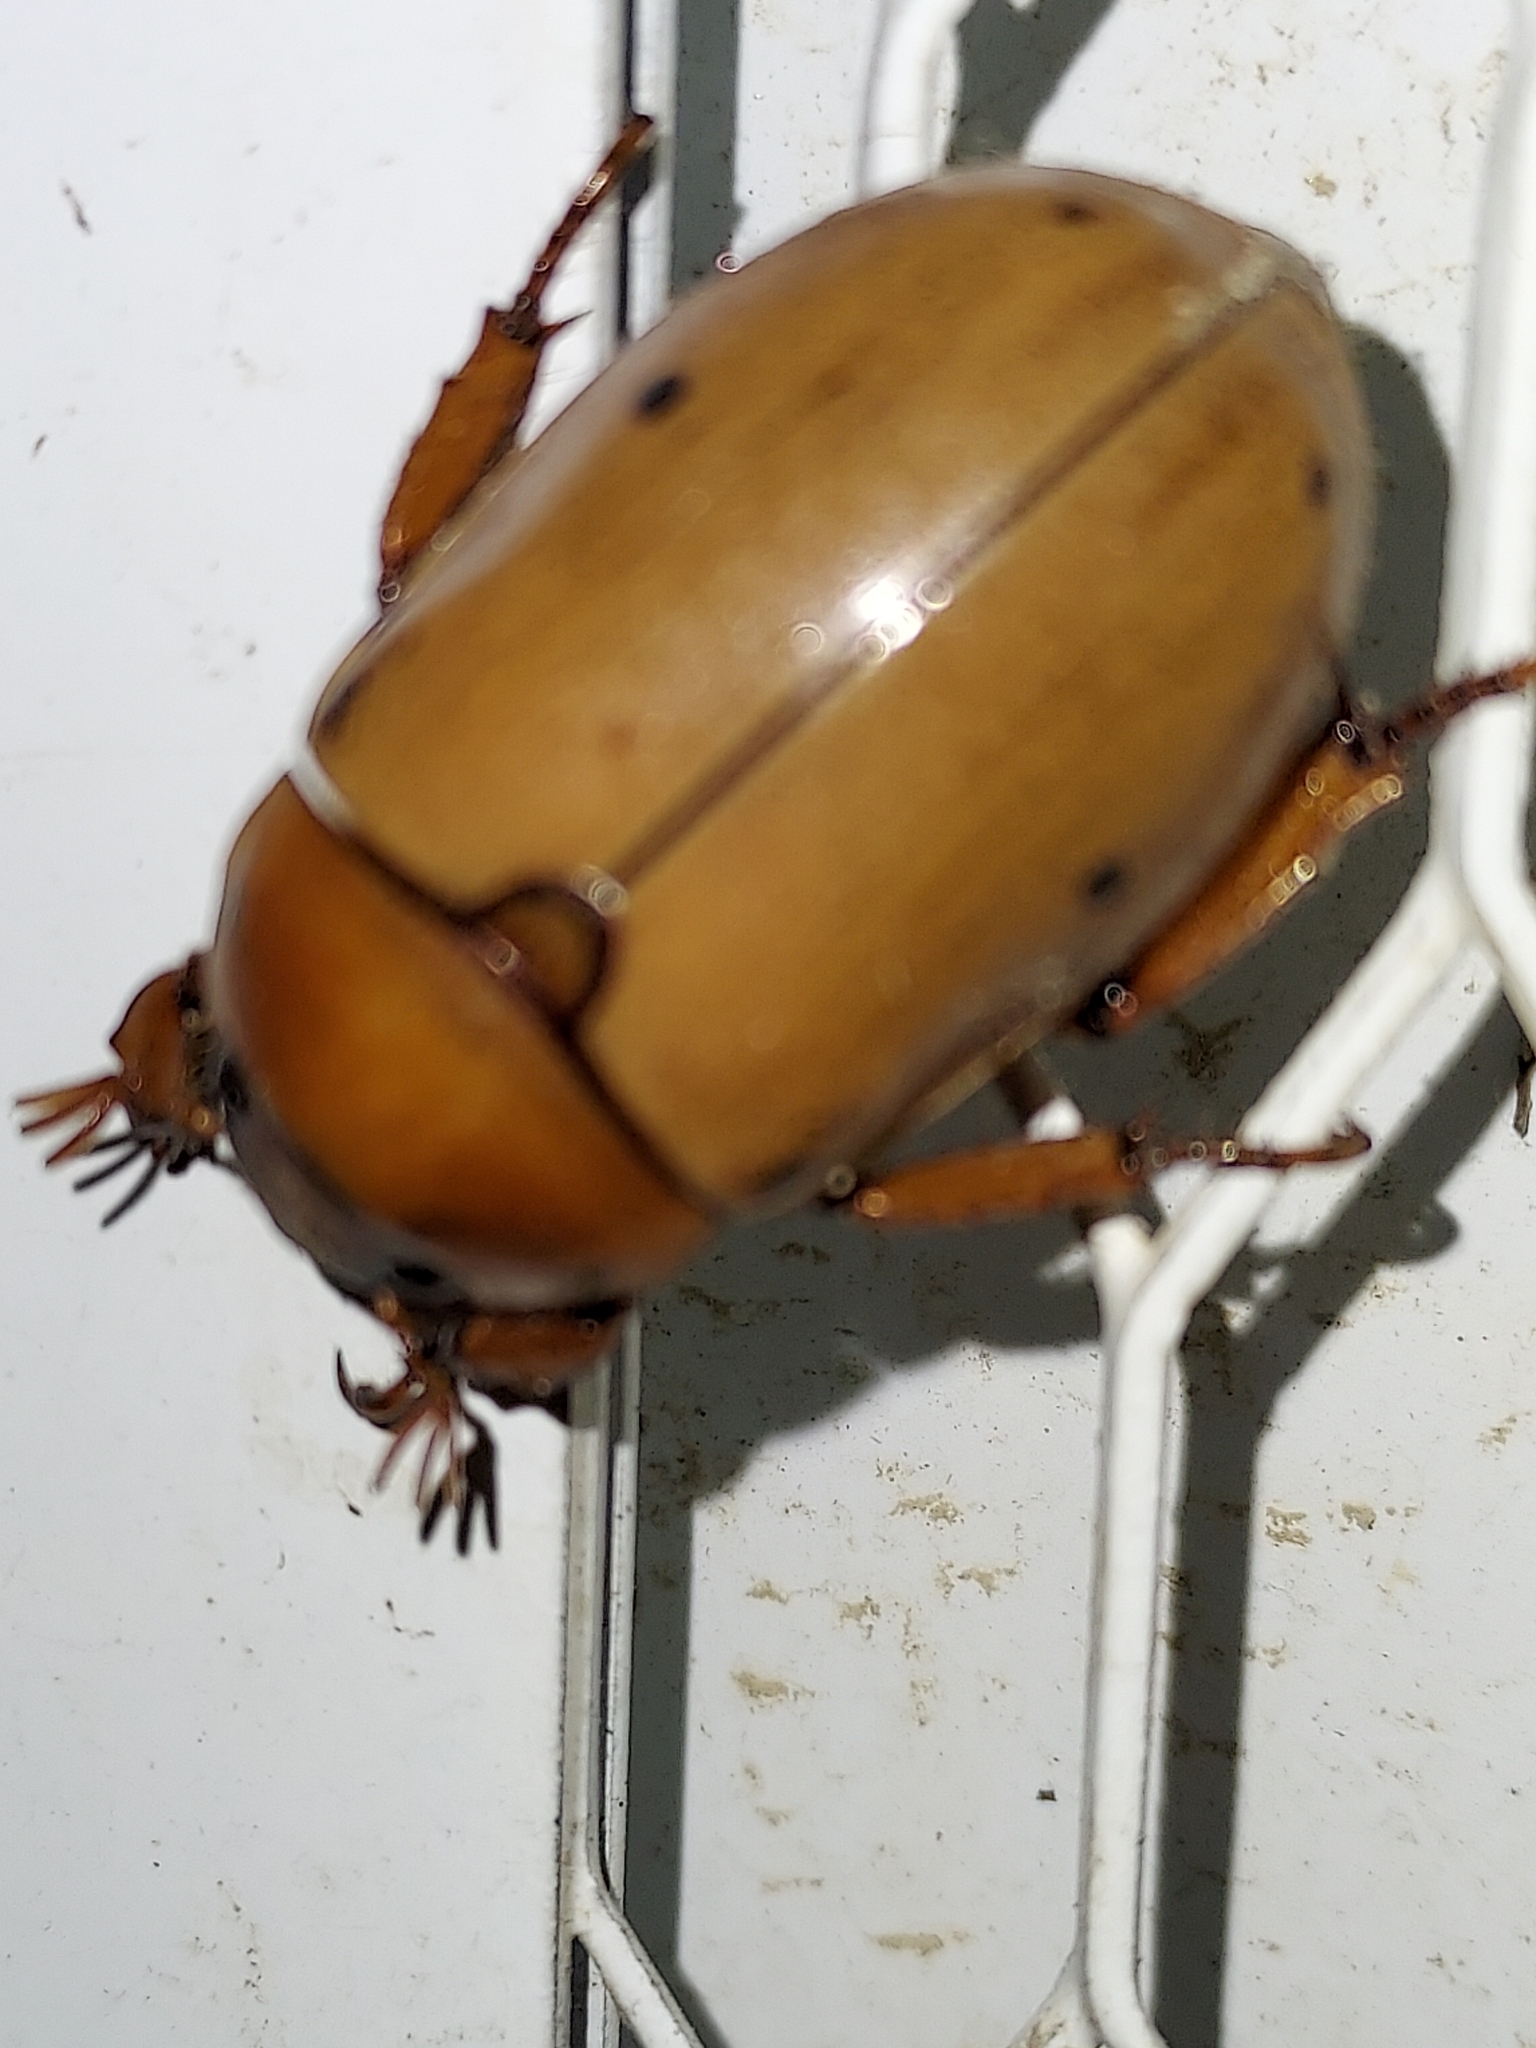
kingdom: Animalia
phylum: Arthropoda
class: Insecta
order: Coleoptera
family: Scarabaeidae
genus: Pelidnota
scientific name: Pelidnota punctata
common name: Grapevine beetle
